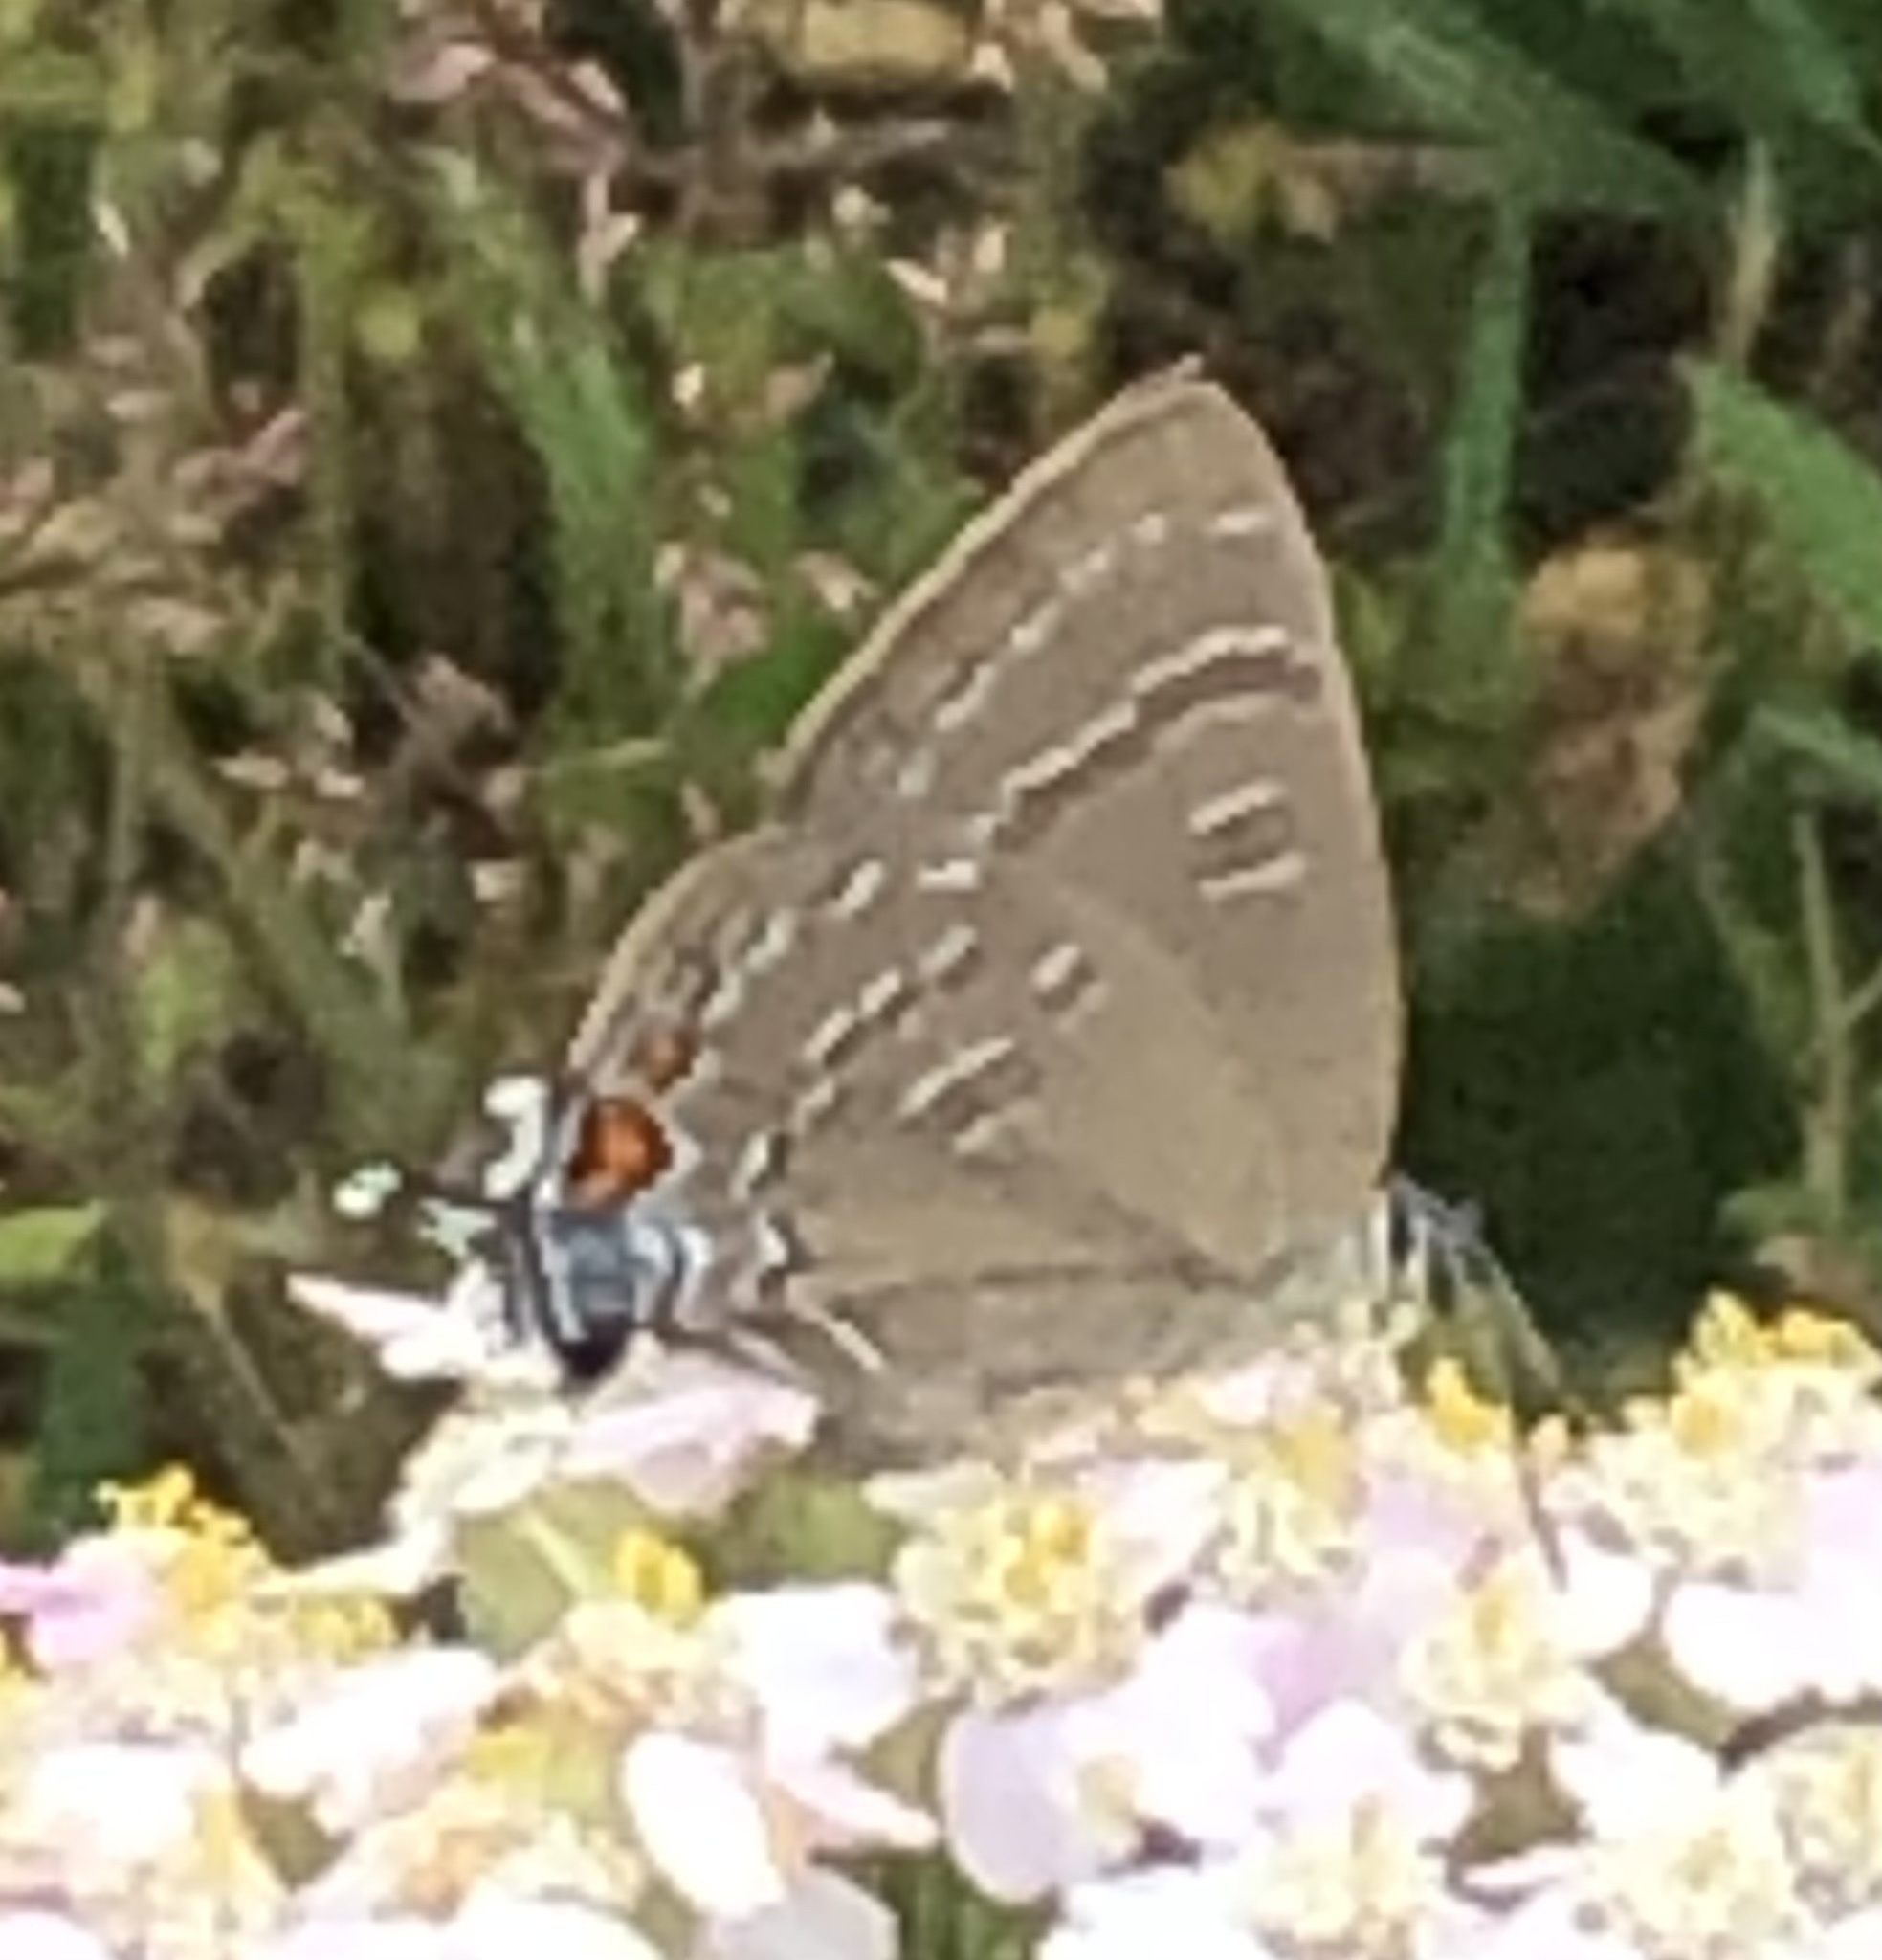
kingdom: Animalia
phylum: Arthropoda
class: Insecta
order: Lepidoptera
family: Lycaenidae
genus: Satyrium
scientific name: Satyrium calanus
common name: Banded hairstreak
